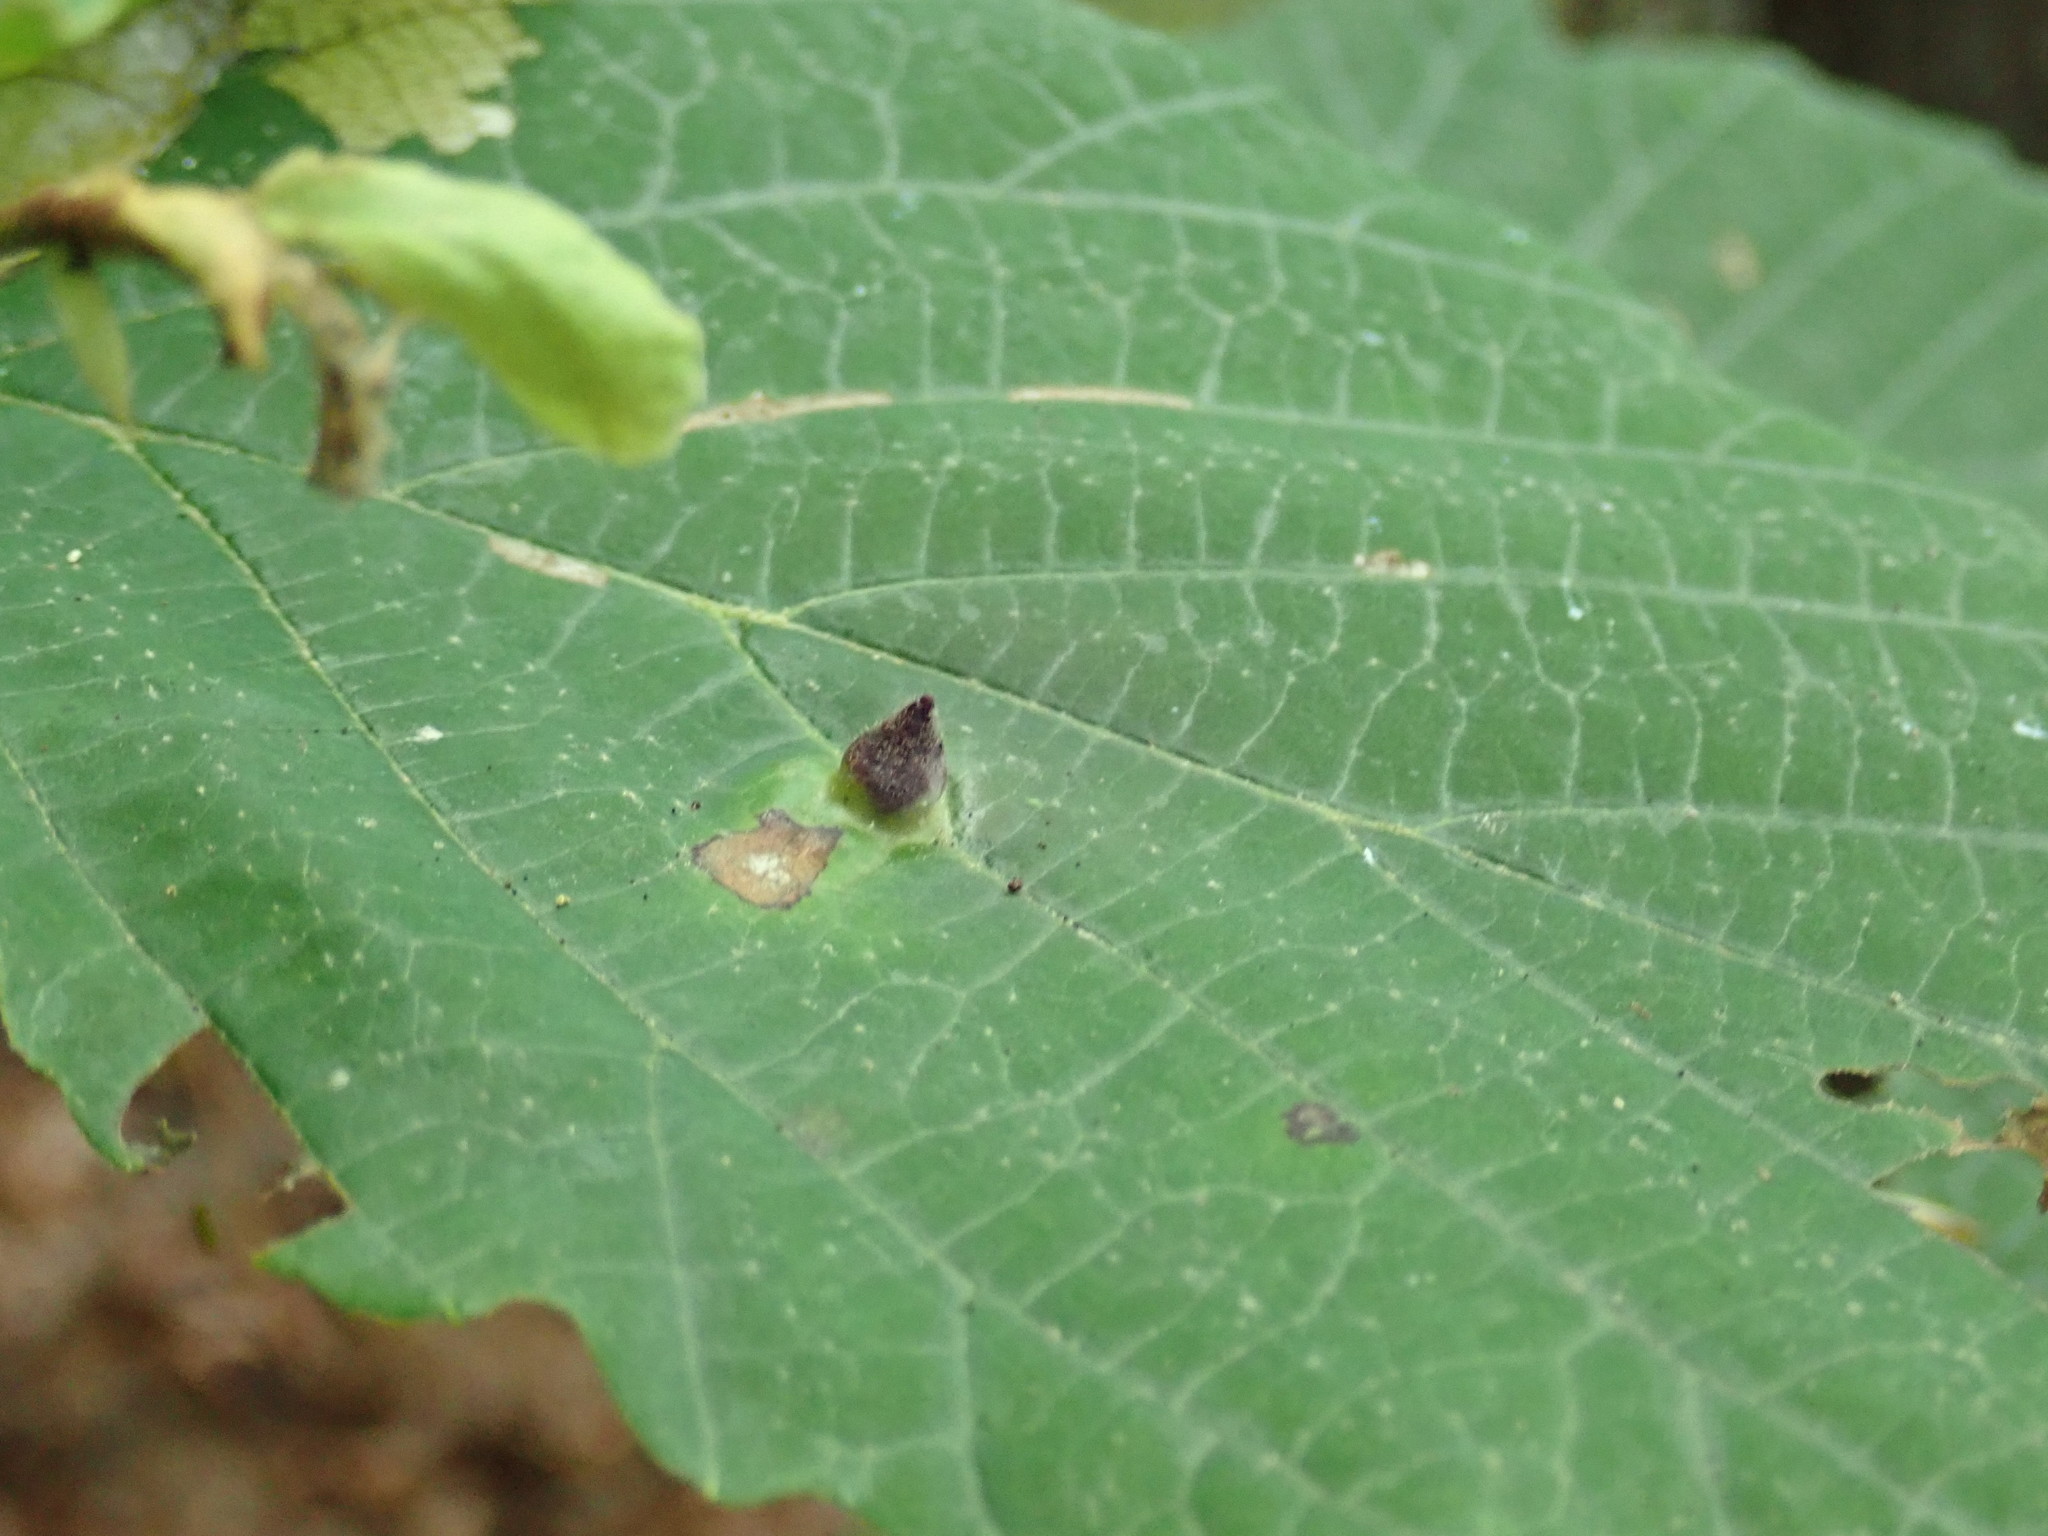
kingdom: Animalia
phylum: Arthropoda
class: Insecta
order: Hemiptera
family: Aphididae
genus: Hormaphis
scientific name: Hormaphis hamamelidis
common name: Witch-hazel cone gall aphid
